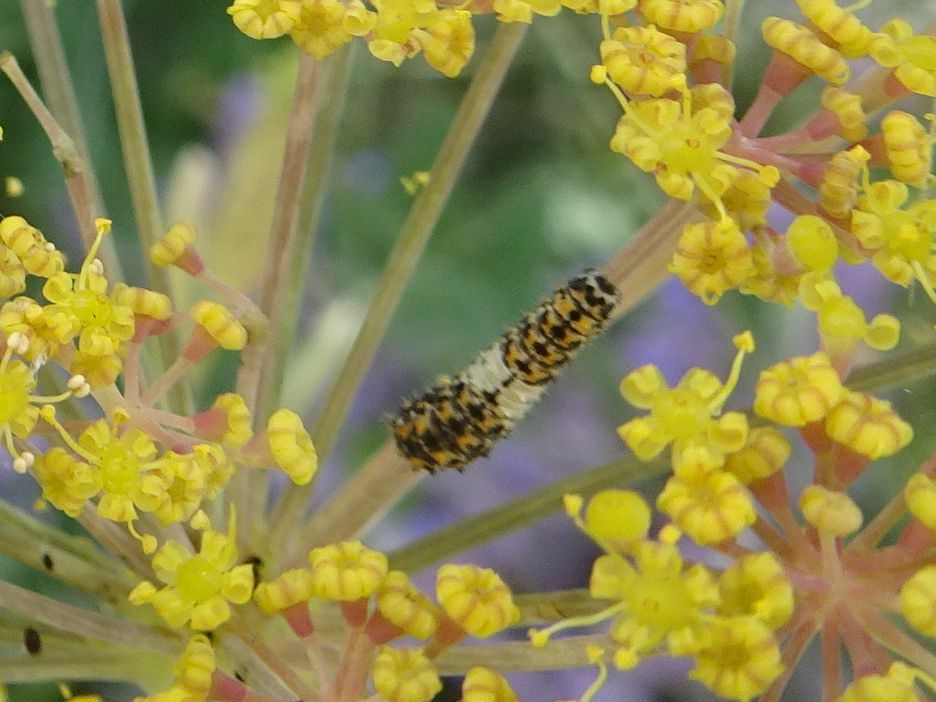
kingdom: Animalia
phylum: Arthropoda
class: Insecta
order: Lepidoptera
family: Papilionidae
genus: Papilio
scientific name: Papilio machaon
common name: Swallowtail
